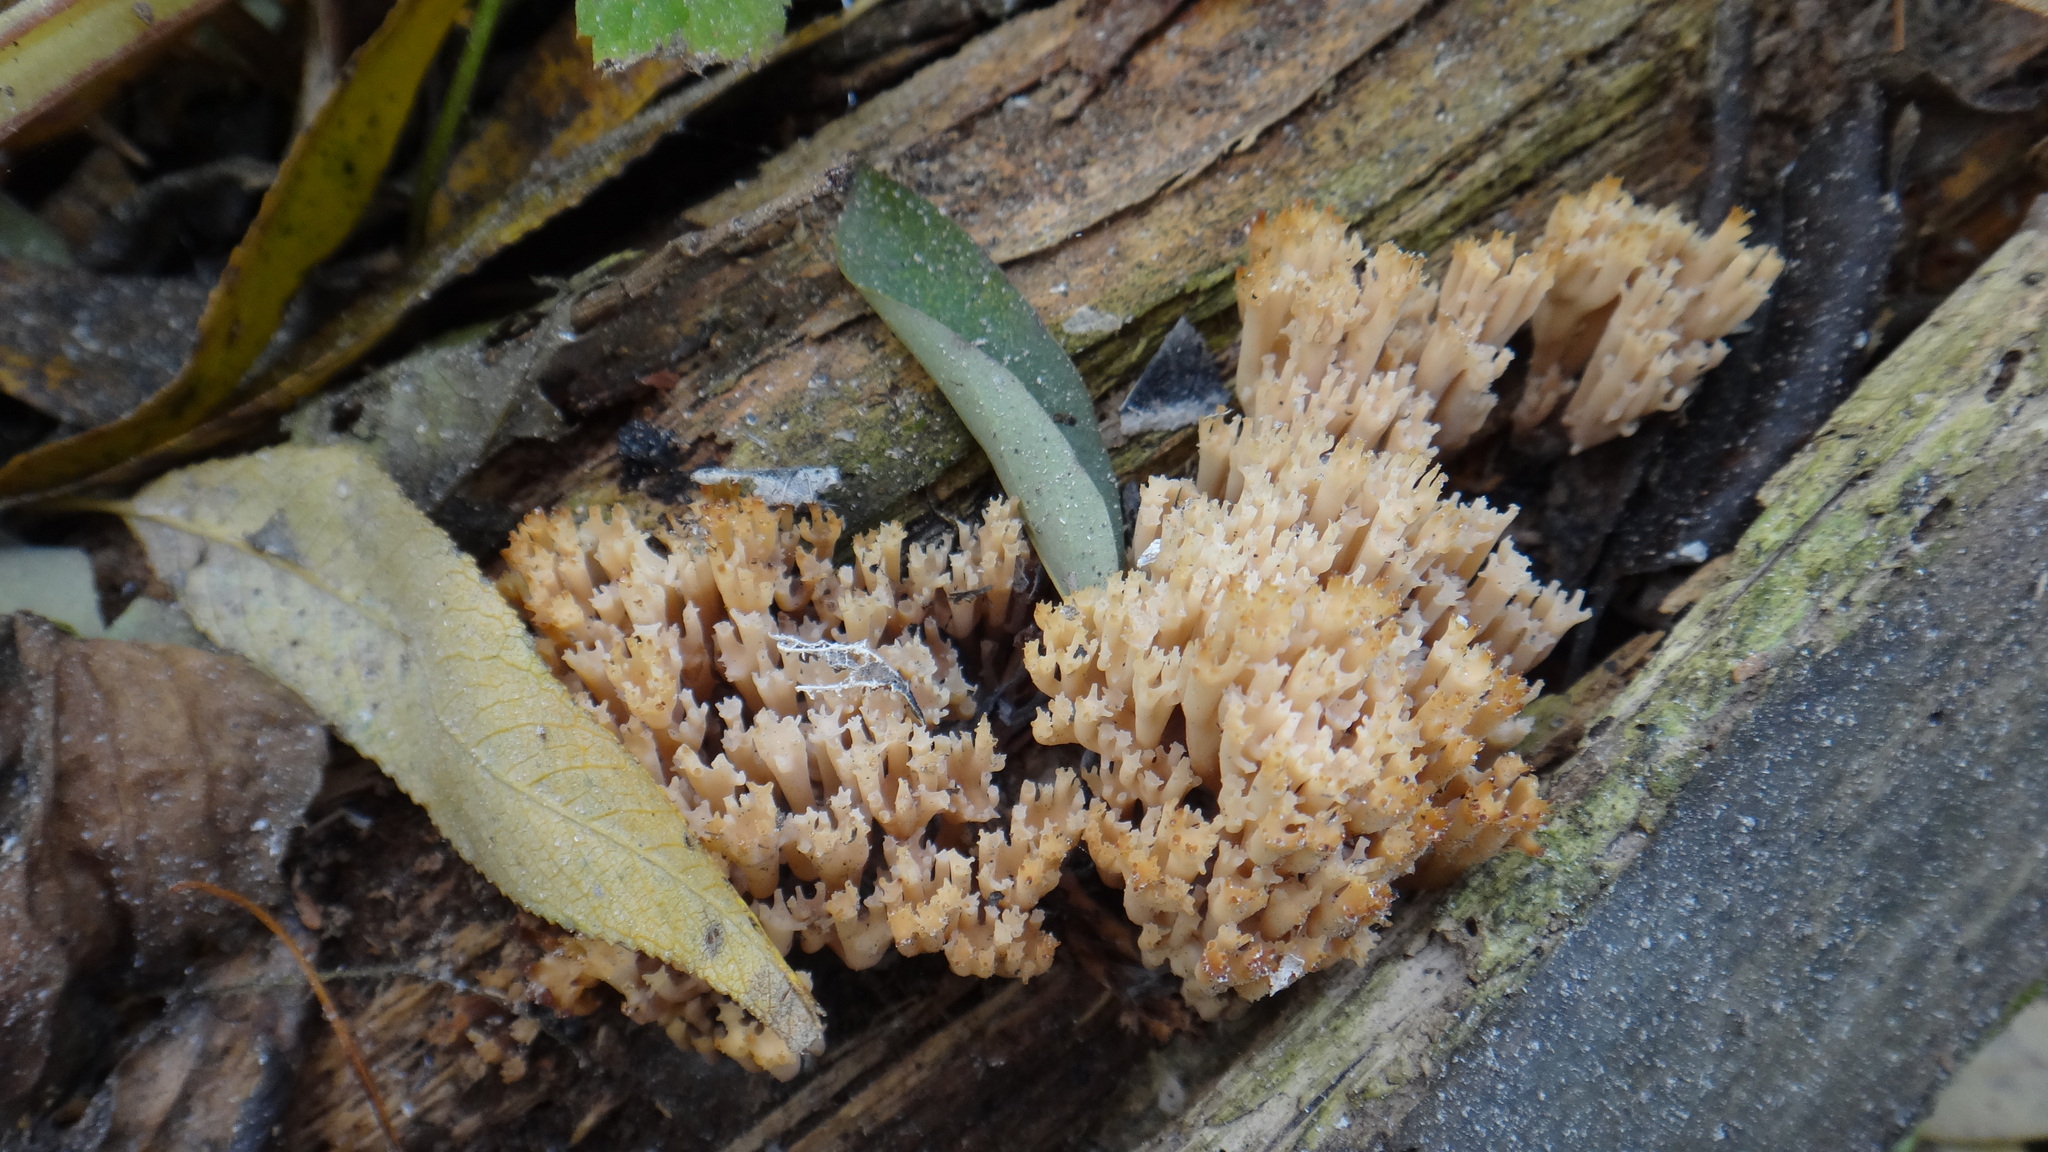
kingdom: Fungi
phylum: Basidiomycota
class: Agaricomycetes
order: Russulales
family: Auriscalpiaceae
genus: Artomyces
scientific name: Artomyces pyxidatus
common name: Crown-tipped coral fungus
